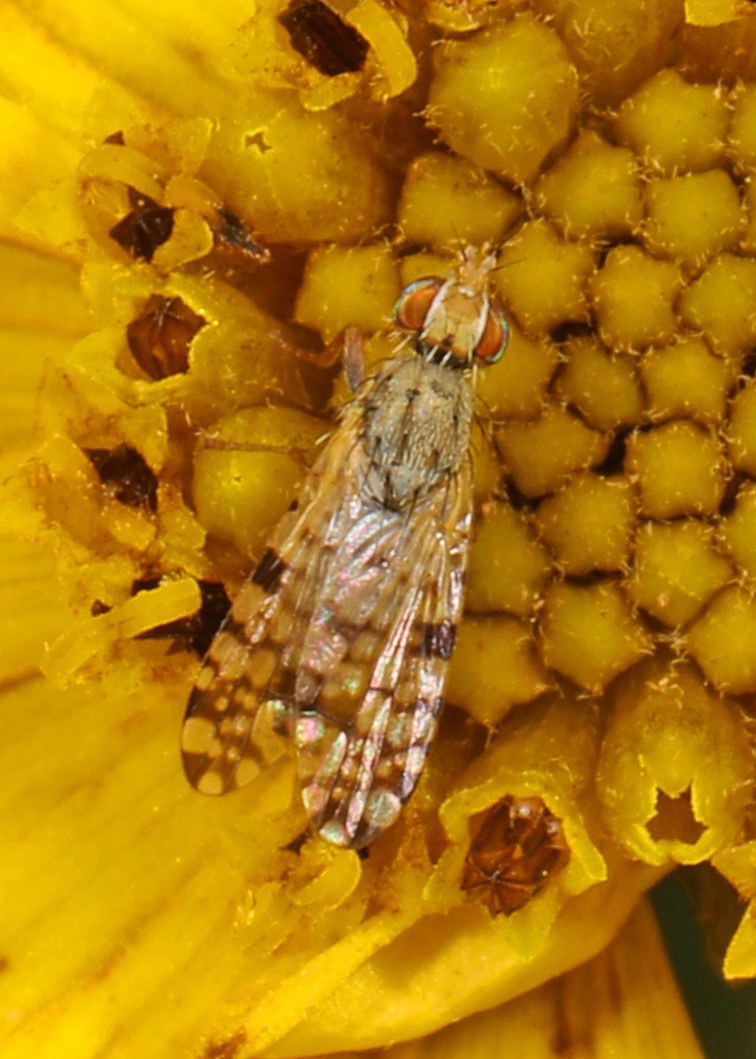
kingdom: Animalia
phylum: Arthropoda
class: Insecta
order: Diptera
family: Tephritidae
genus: Dioxyna
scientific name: Dioxyna picciola
